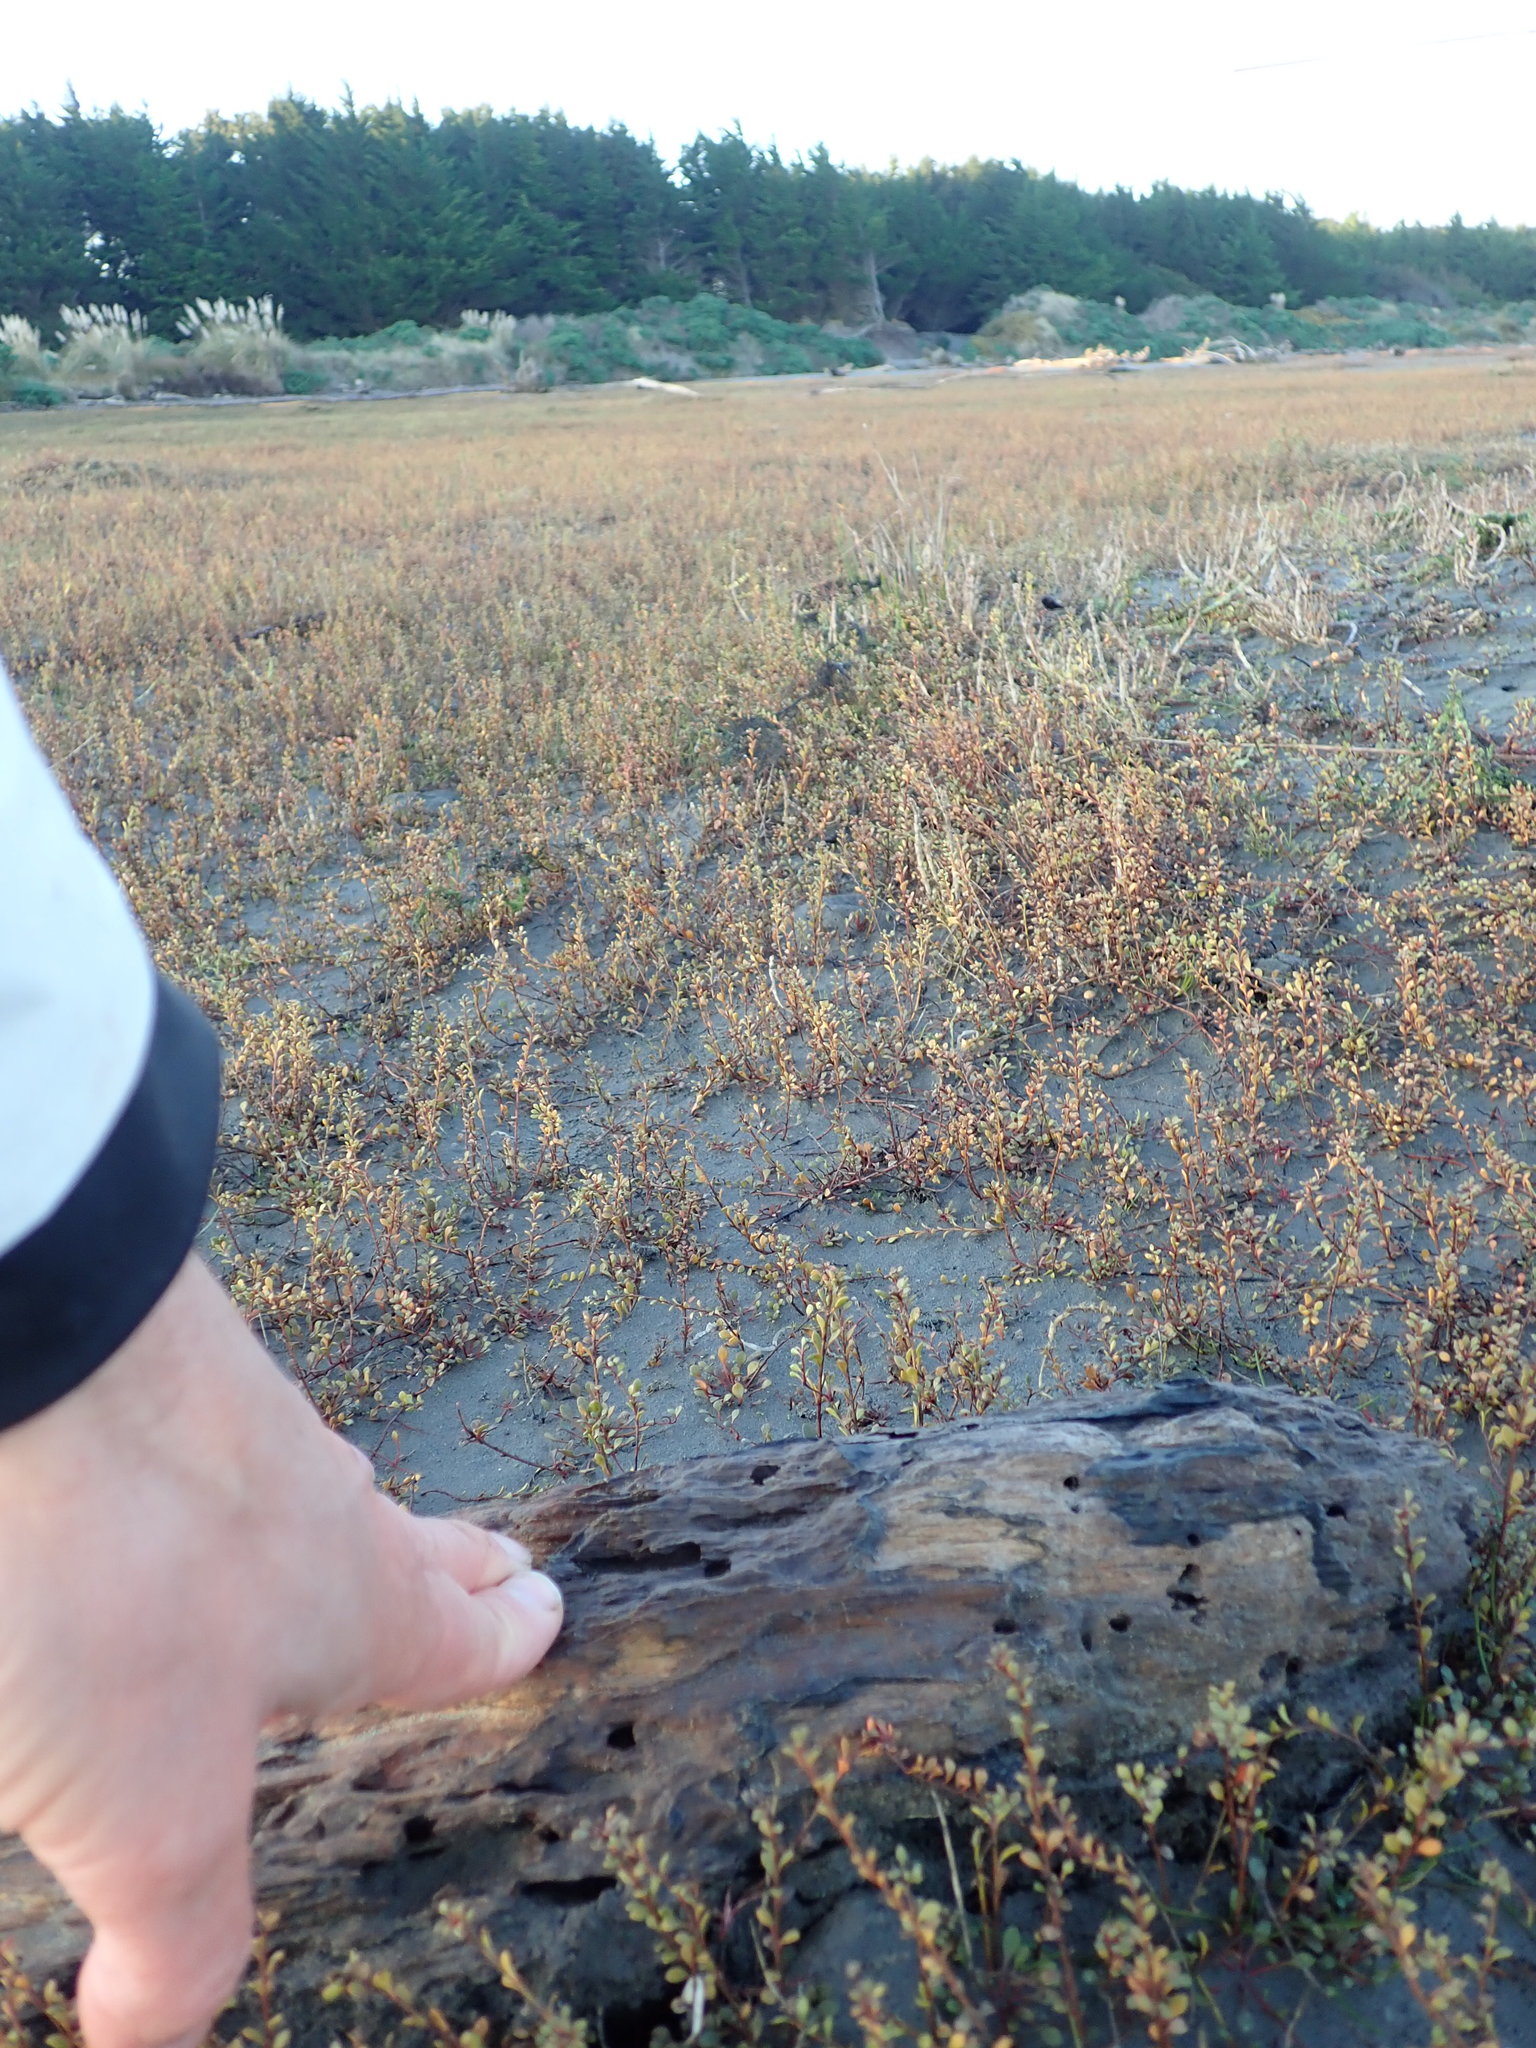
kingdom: Animalia
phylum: Arthropoda
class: Malacostraca
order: Decapoda
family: Varunidae
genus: Austrohelice
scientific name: Austrohelice crassa
